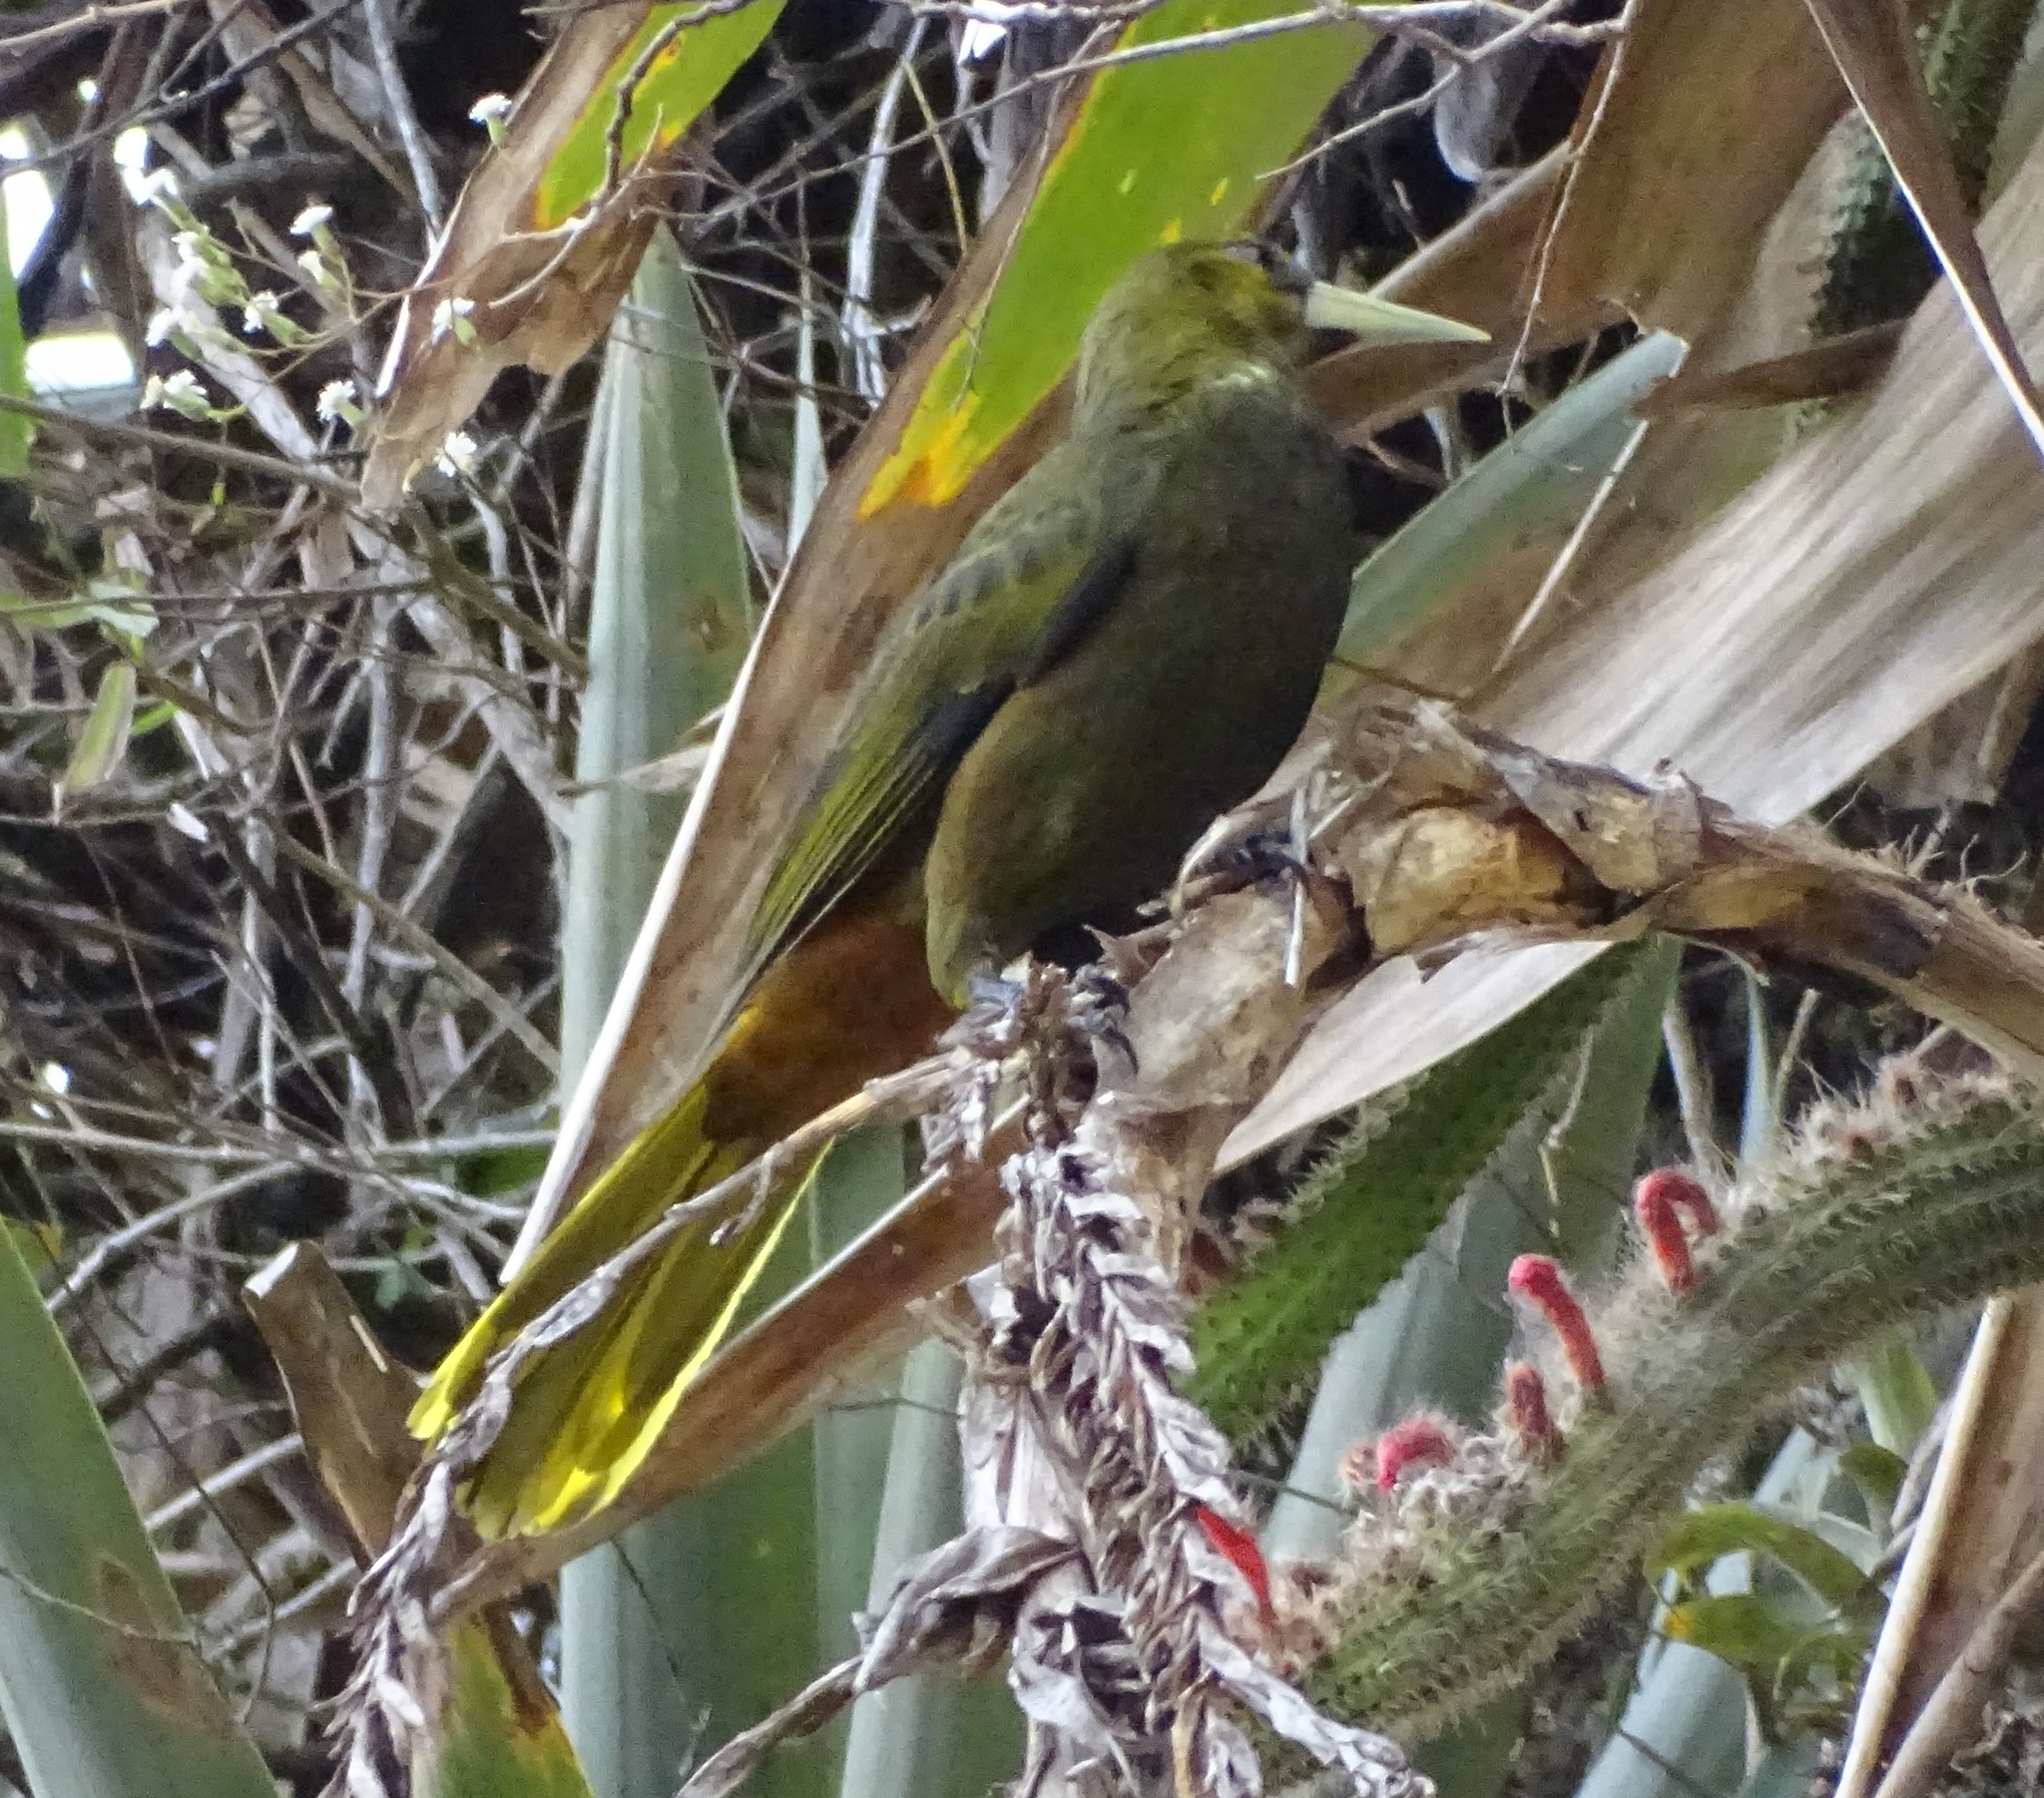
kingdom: Animalia
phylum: Chordata
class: Aves
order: Passeriformes
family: Icteridae
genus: Psarocolius
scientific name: Psarocolius atrovirens
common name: Dusky-green oropendola
